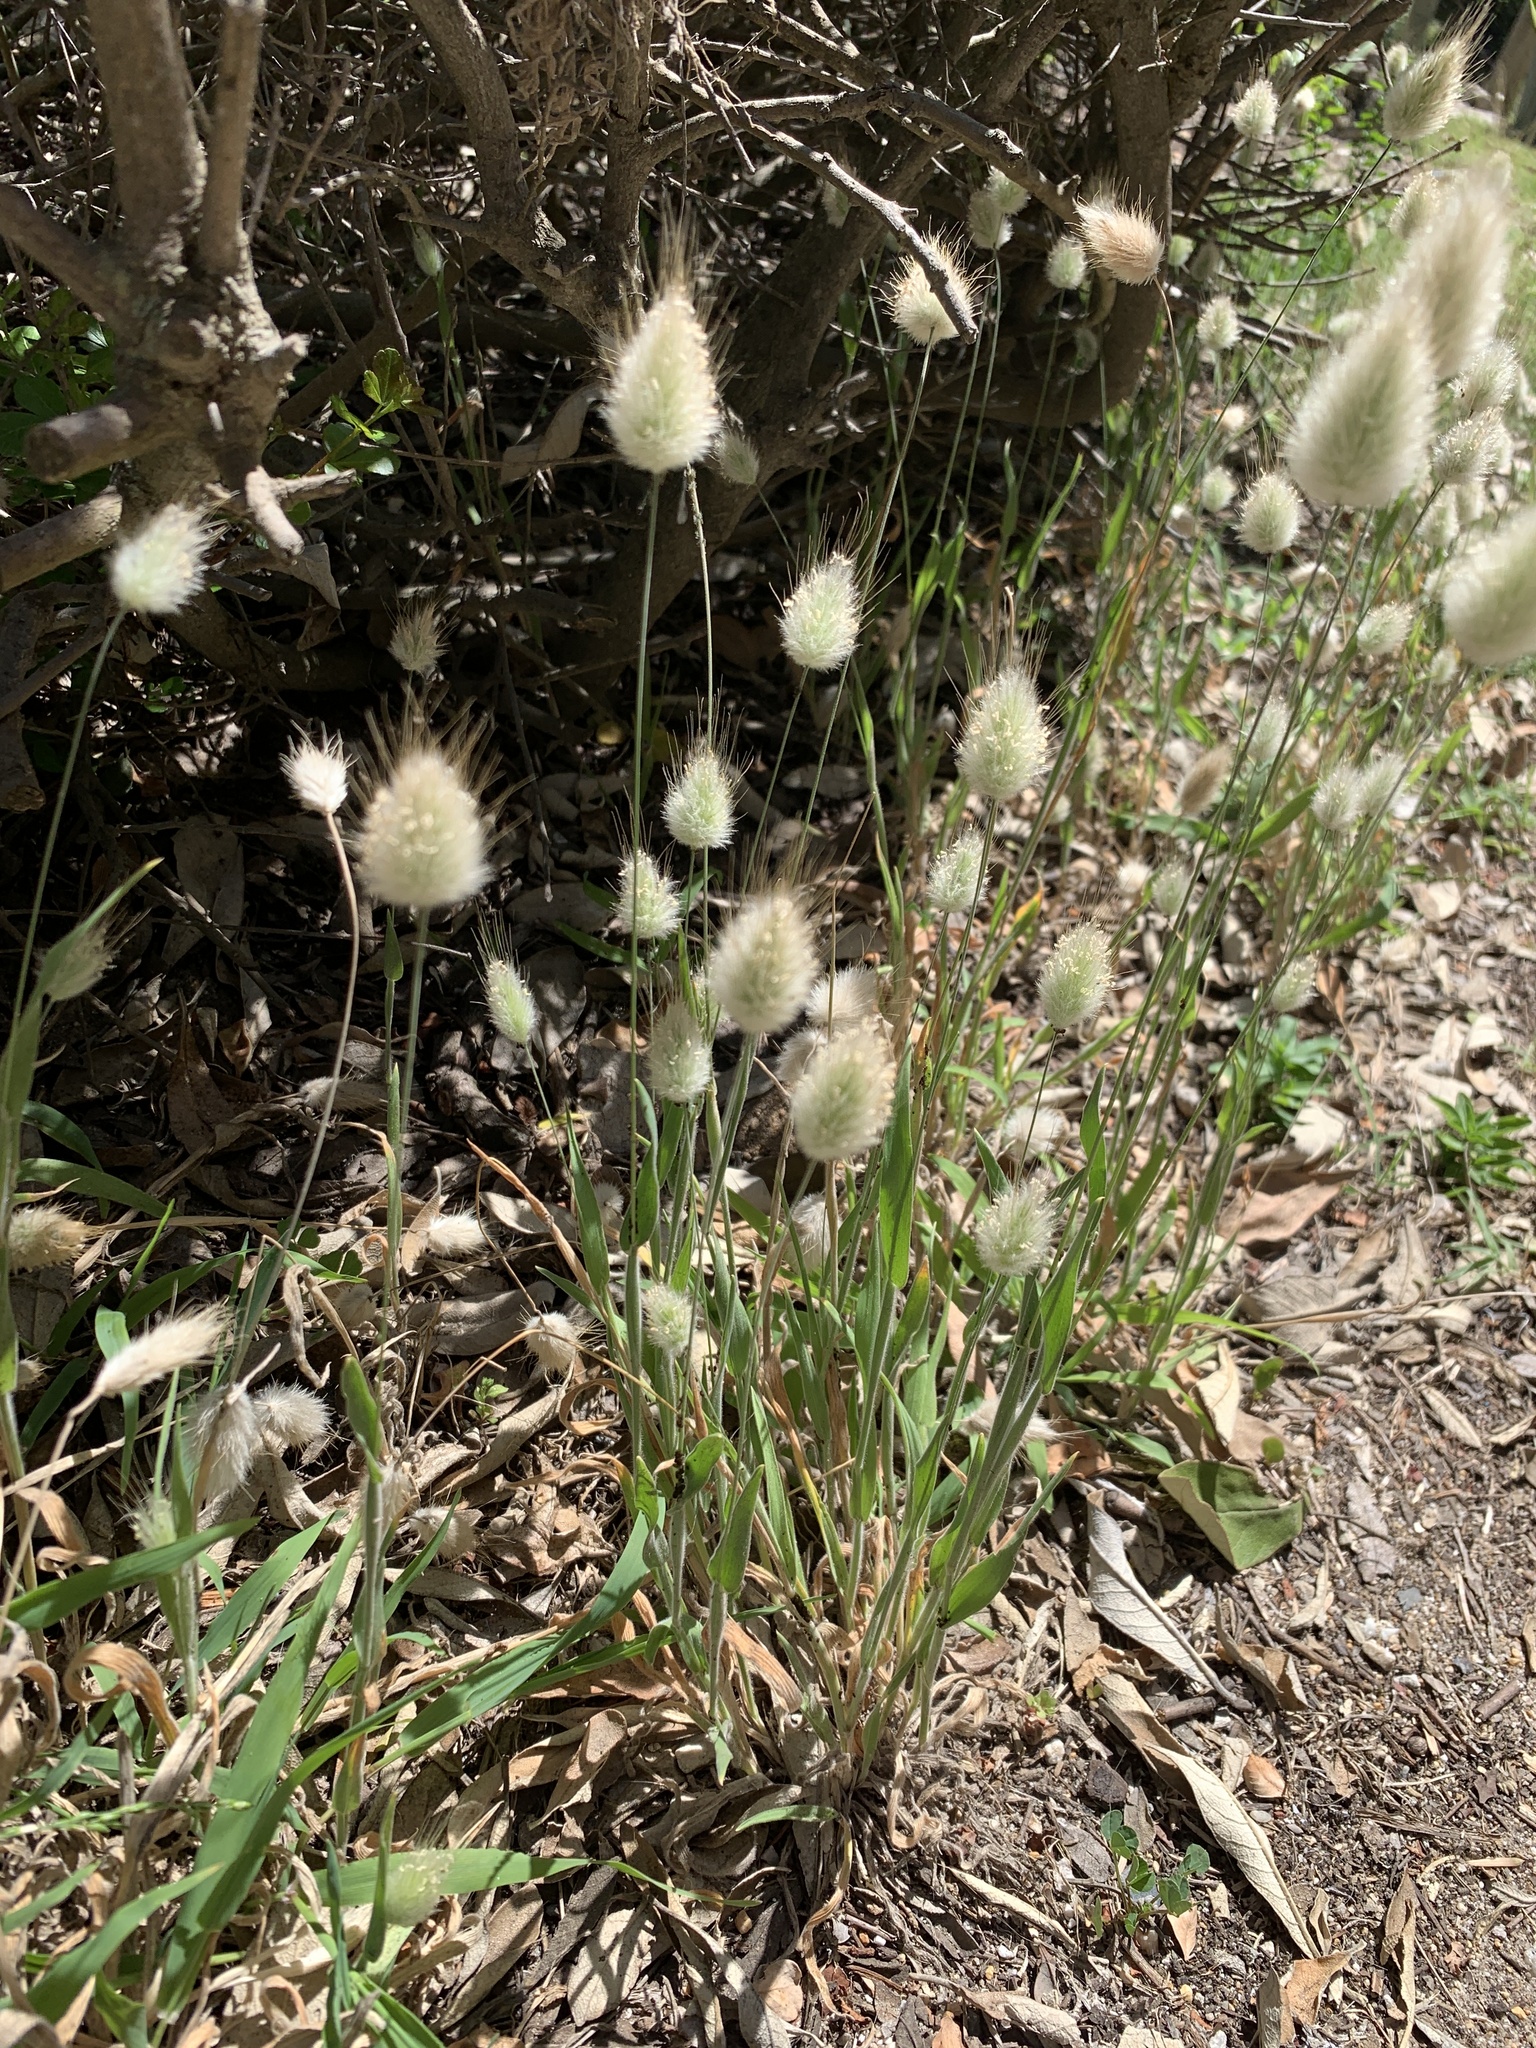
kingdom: Plantae
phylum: Tracheophyta
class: Liliopsida
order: Poales
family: Poaceae
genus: Lagurus
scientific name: Lagurus ovatus
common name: Hare's-tail
